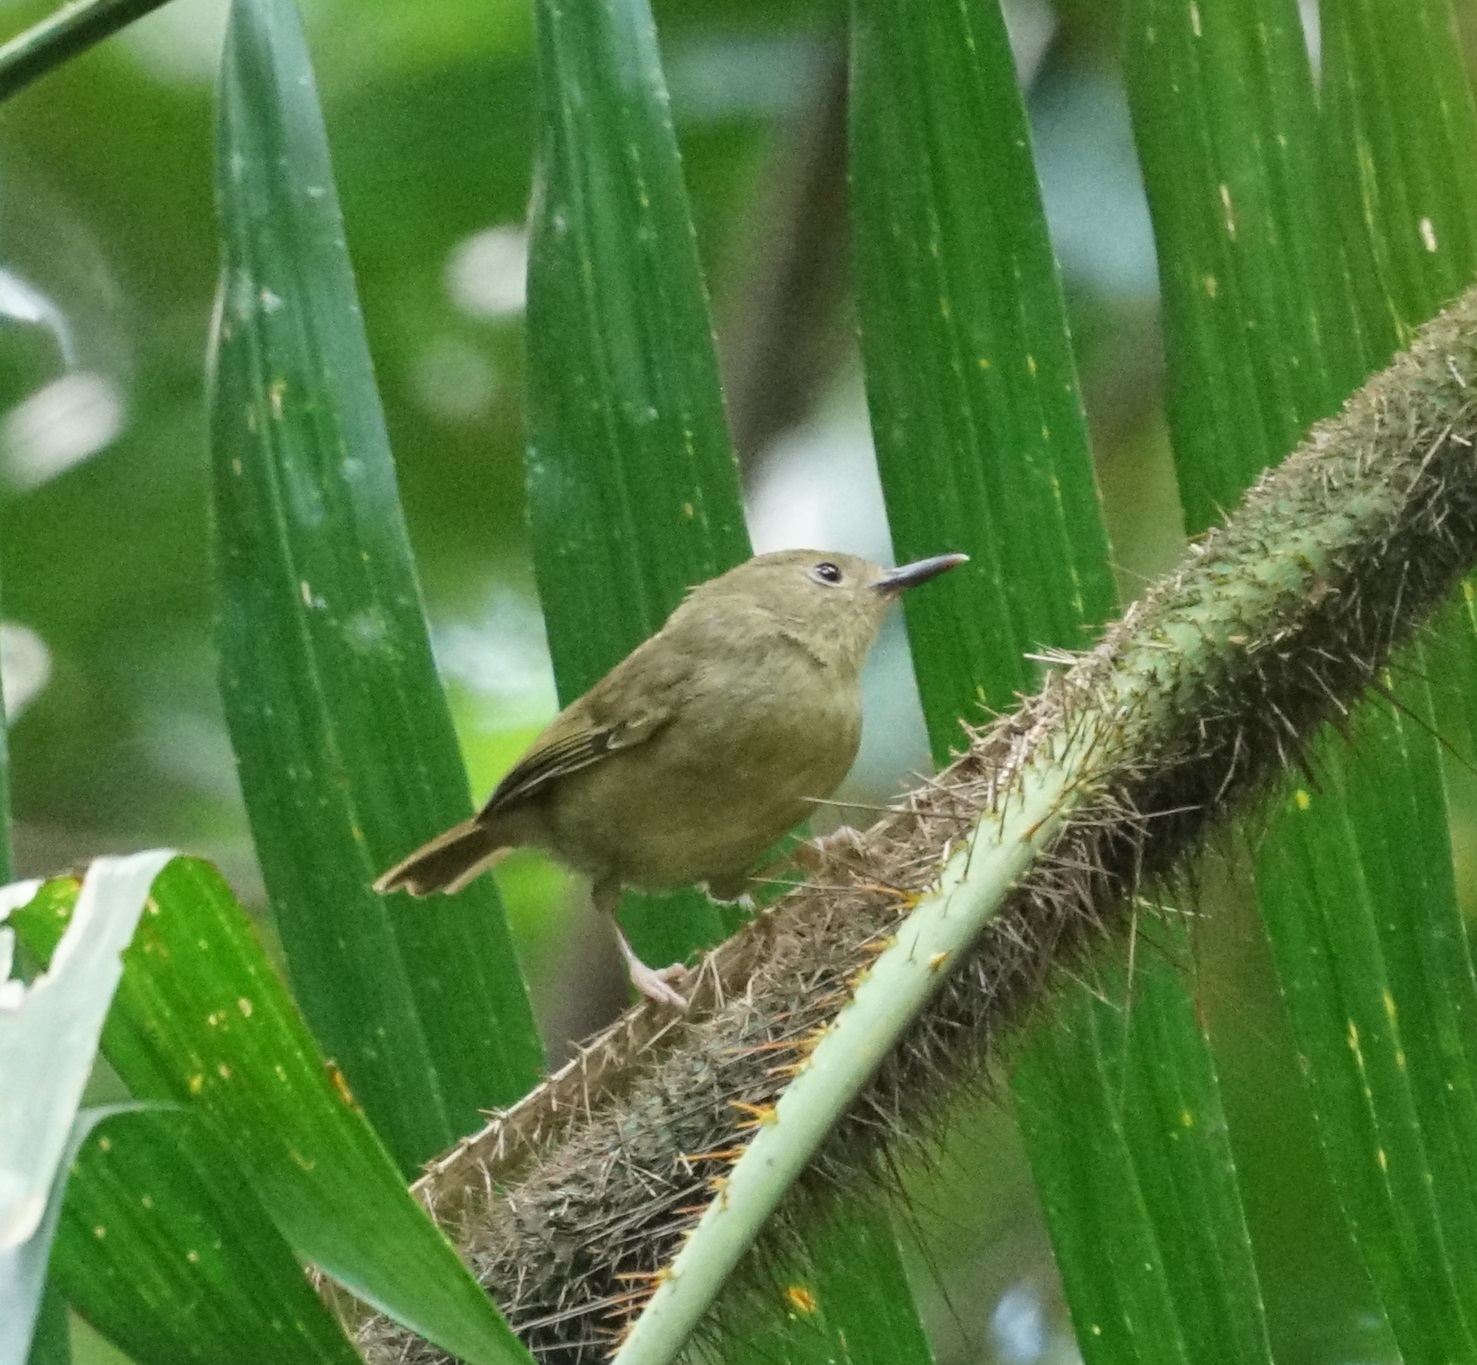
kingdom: Animalia
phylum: Chordata
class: Aves
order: Passeriformes
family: Acanthizidae
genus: Sericornis
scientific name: Sericornis magnirostra
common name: Large-billed scrubwren
